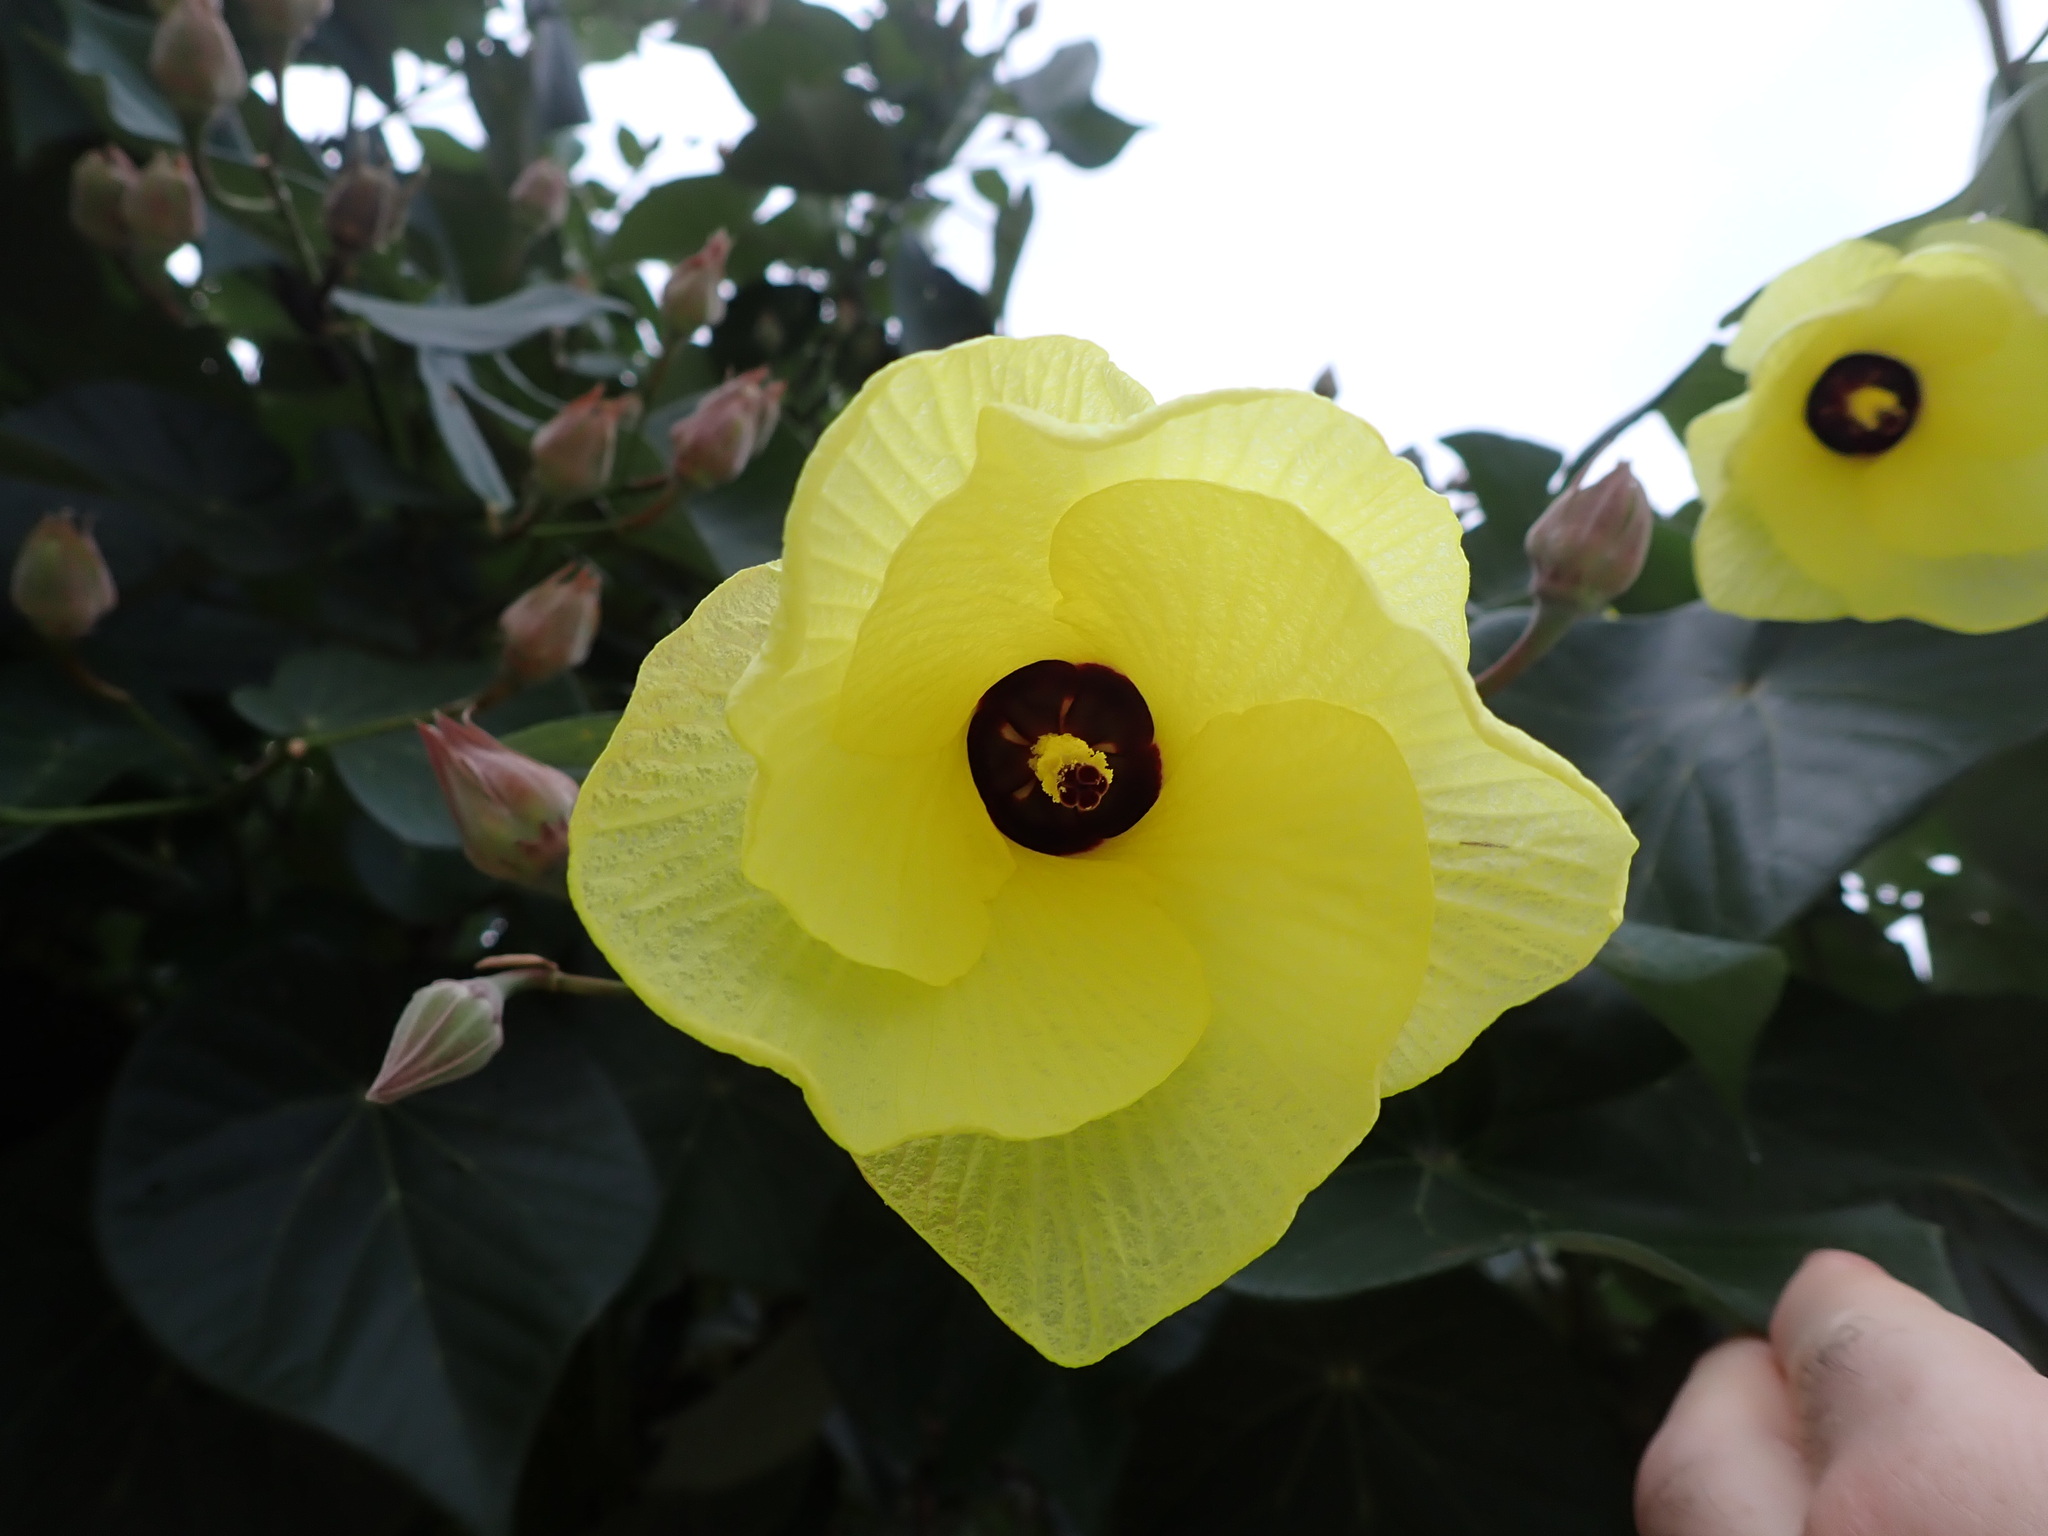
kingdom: Plantae
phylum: Tracheophyta
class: Magnoliopsida
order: Malvales
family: Malvaceae
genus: Talipariti
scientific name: Talipariti tiliaceum
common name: Sea hibiscus
